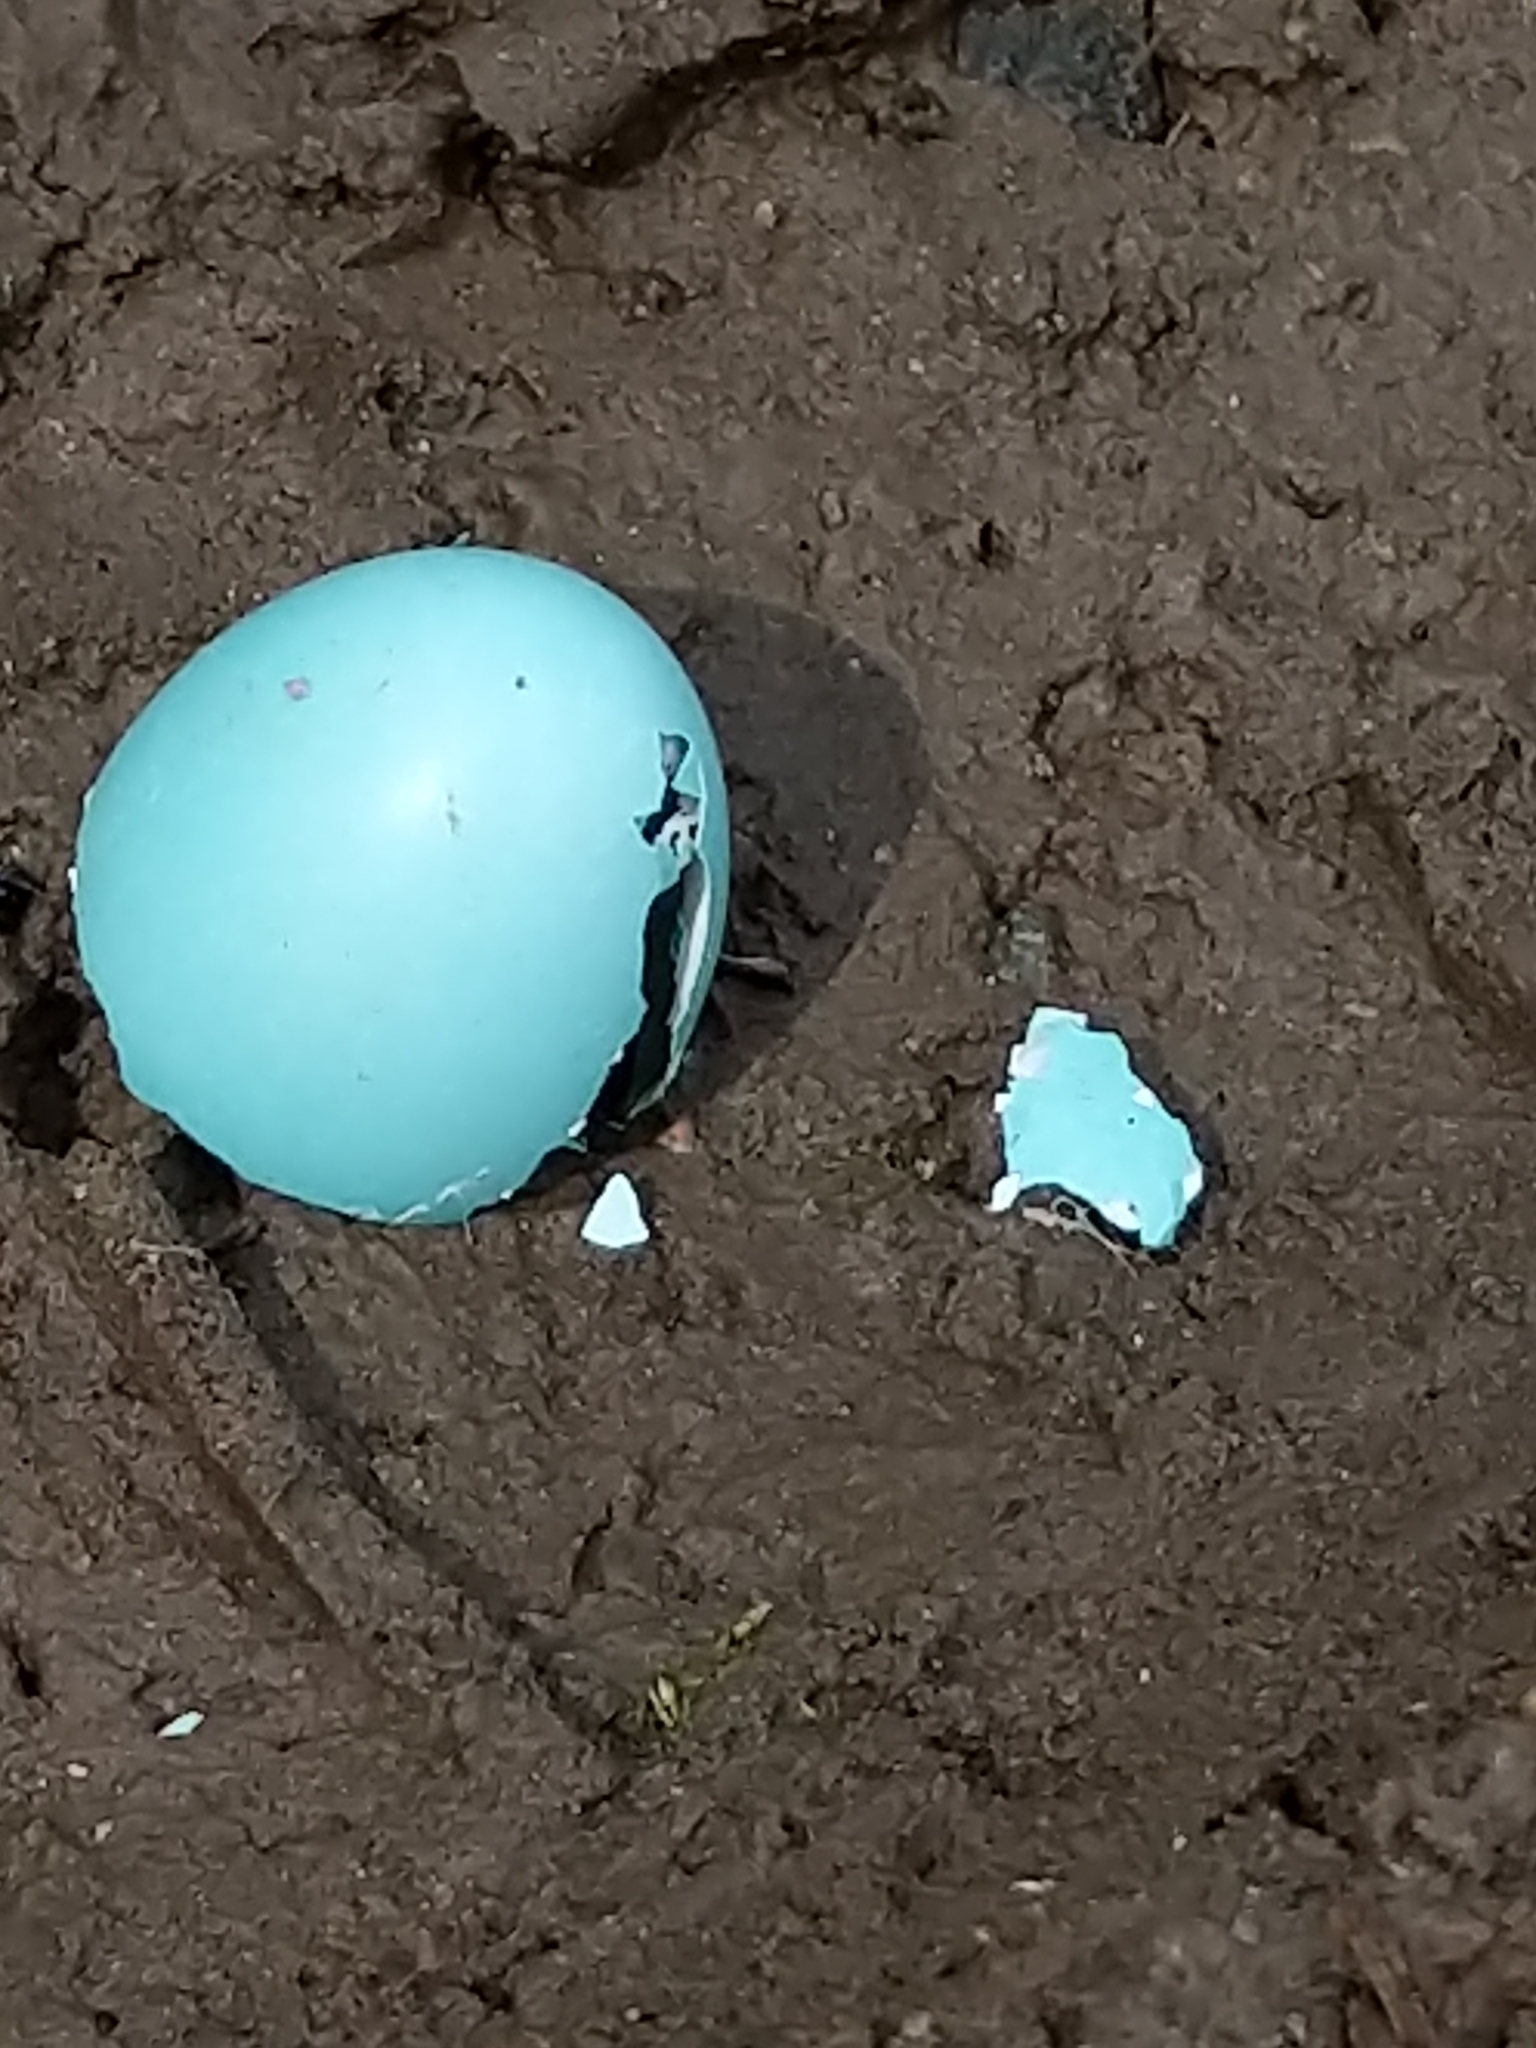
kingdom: Animalia
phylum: Chordata
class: Aves
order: Passeriformes
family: Turdidae
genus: Turdus
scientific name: Turdus migratorius
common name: American robin
